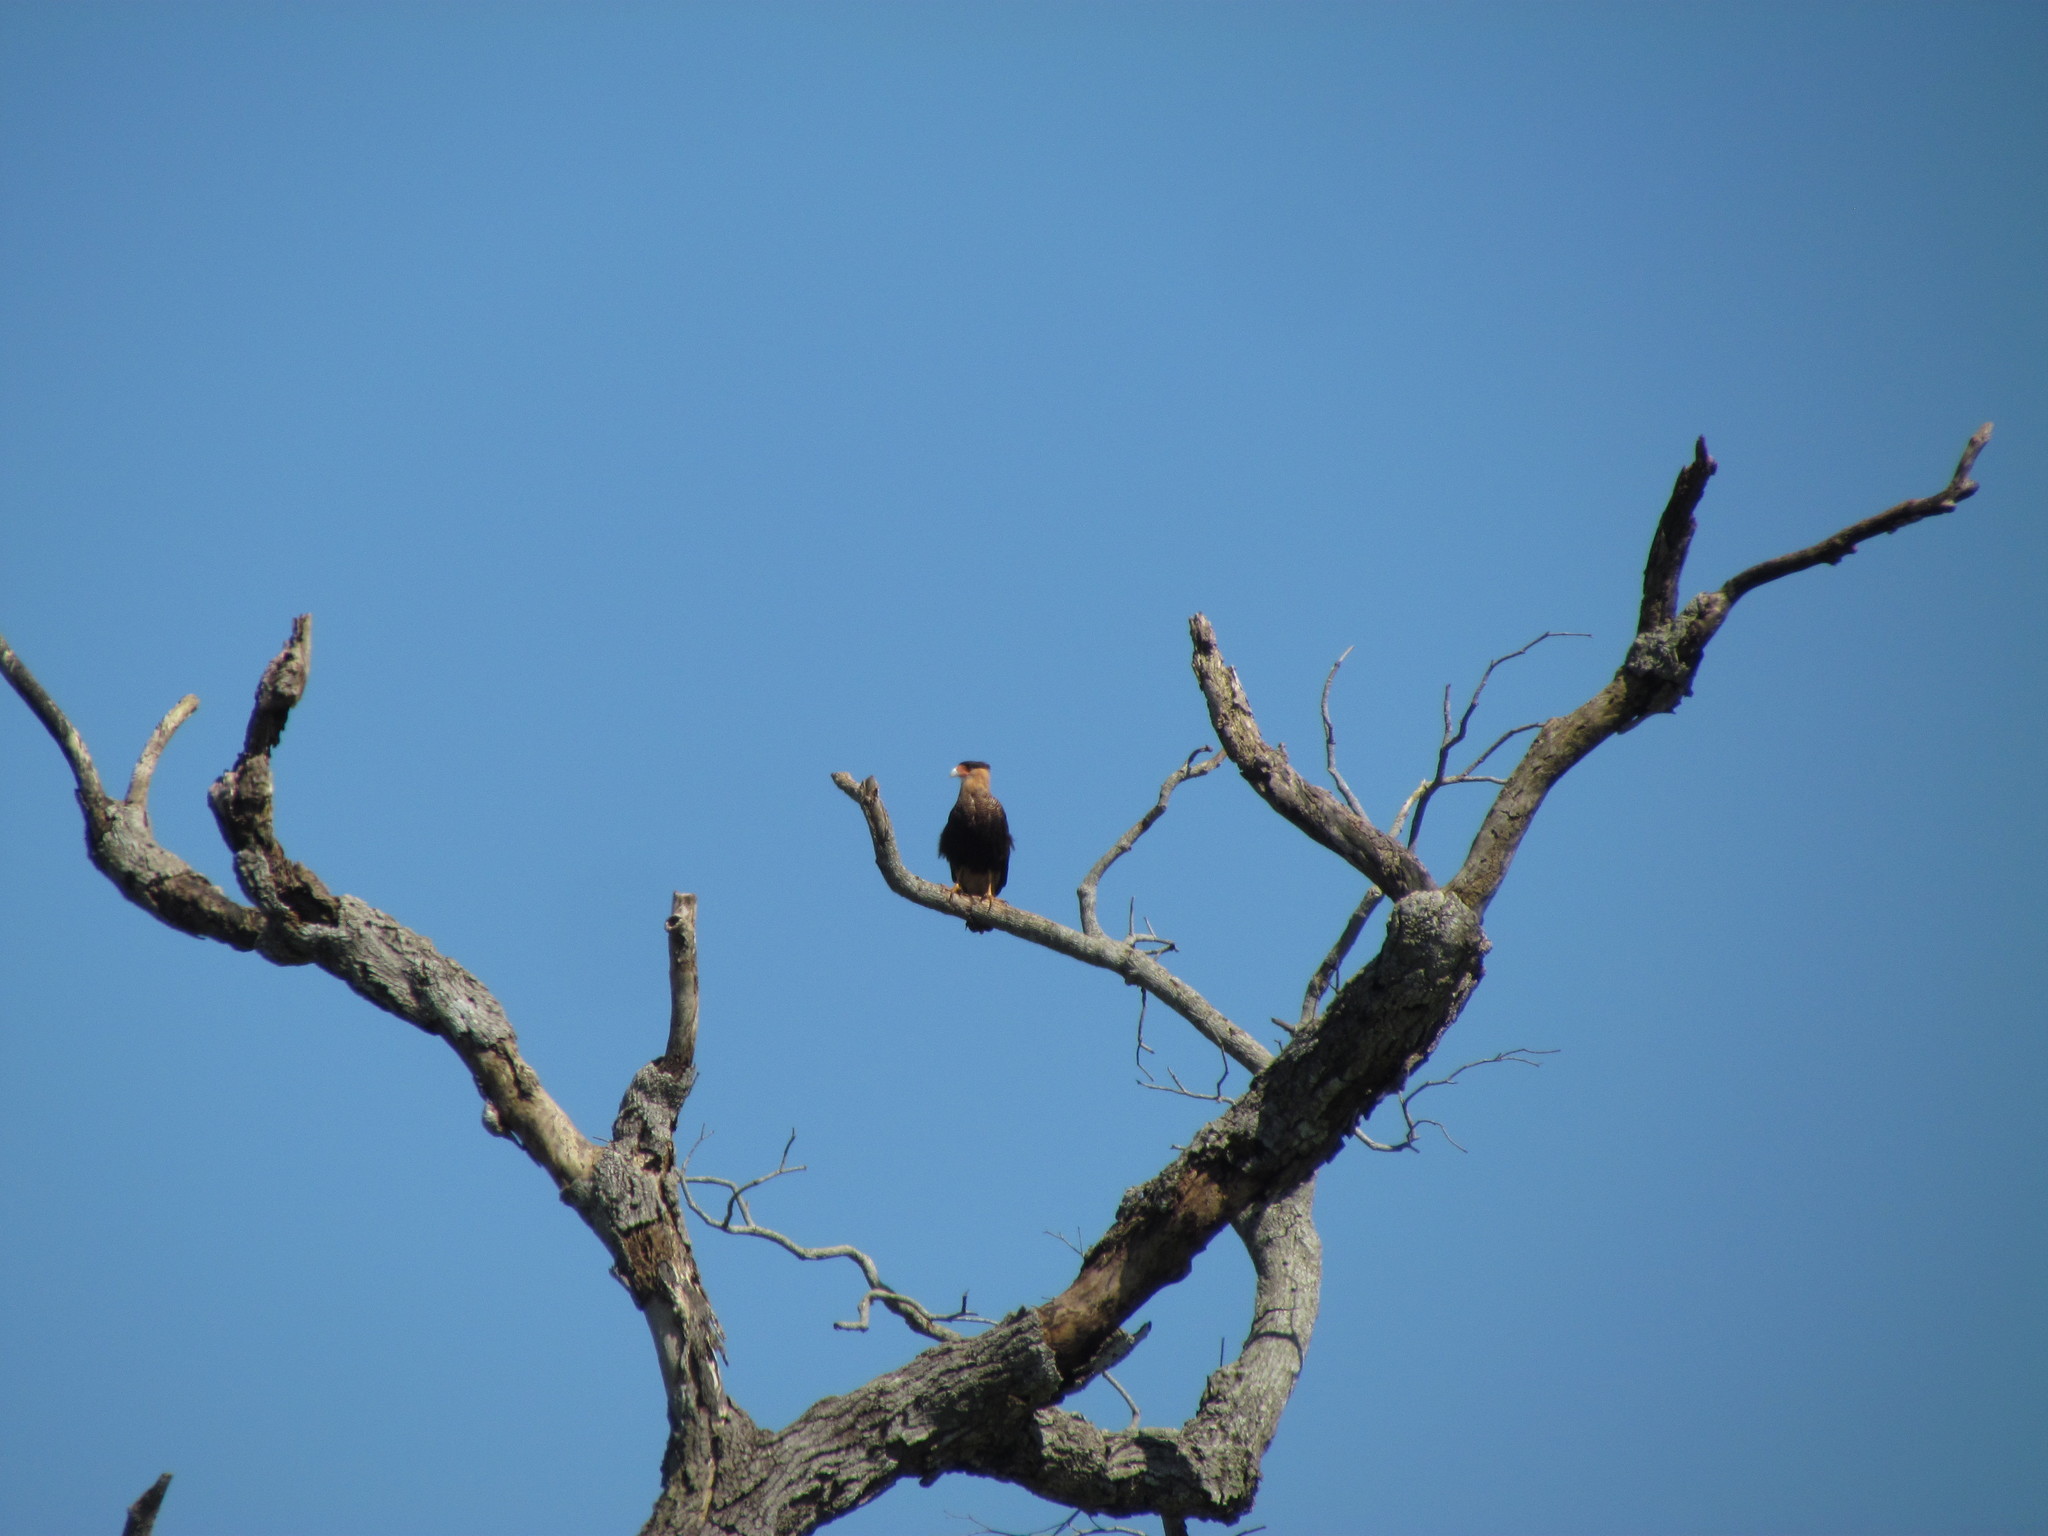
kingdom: Animalia
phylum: Chordata
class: Aves
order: Falconiformes
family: Falconidae
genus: Caracara
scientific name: Caracara plancus
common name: Southern caracara
